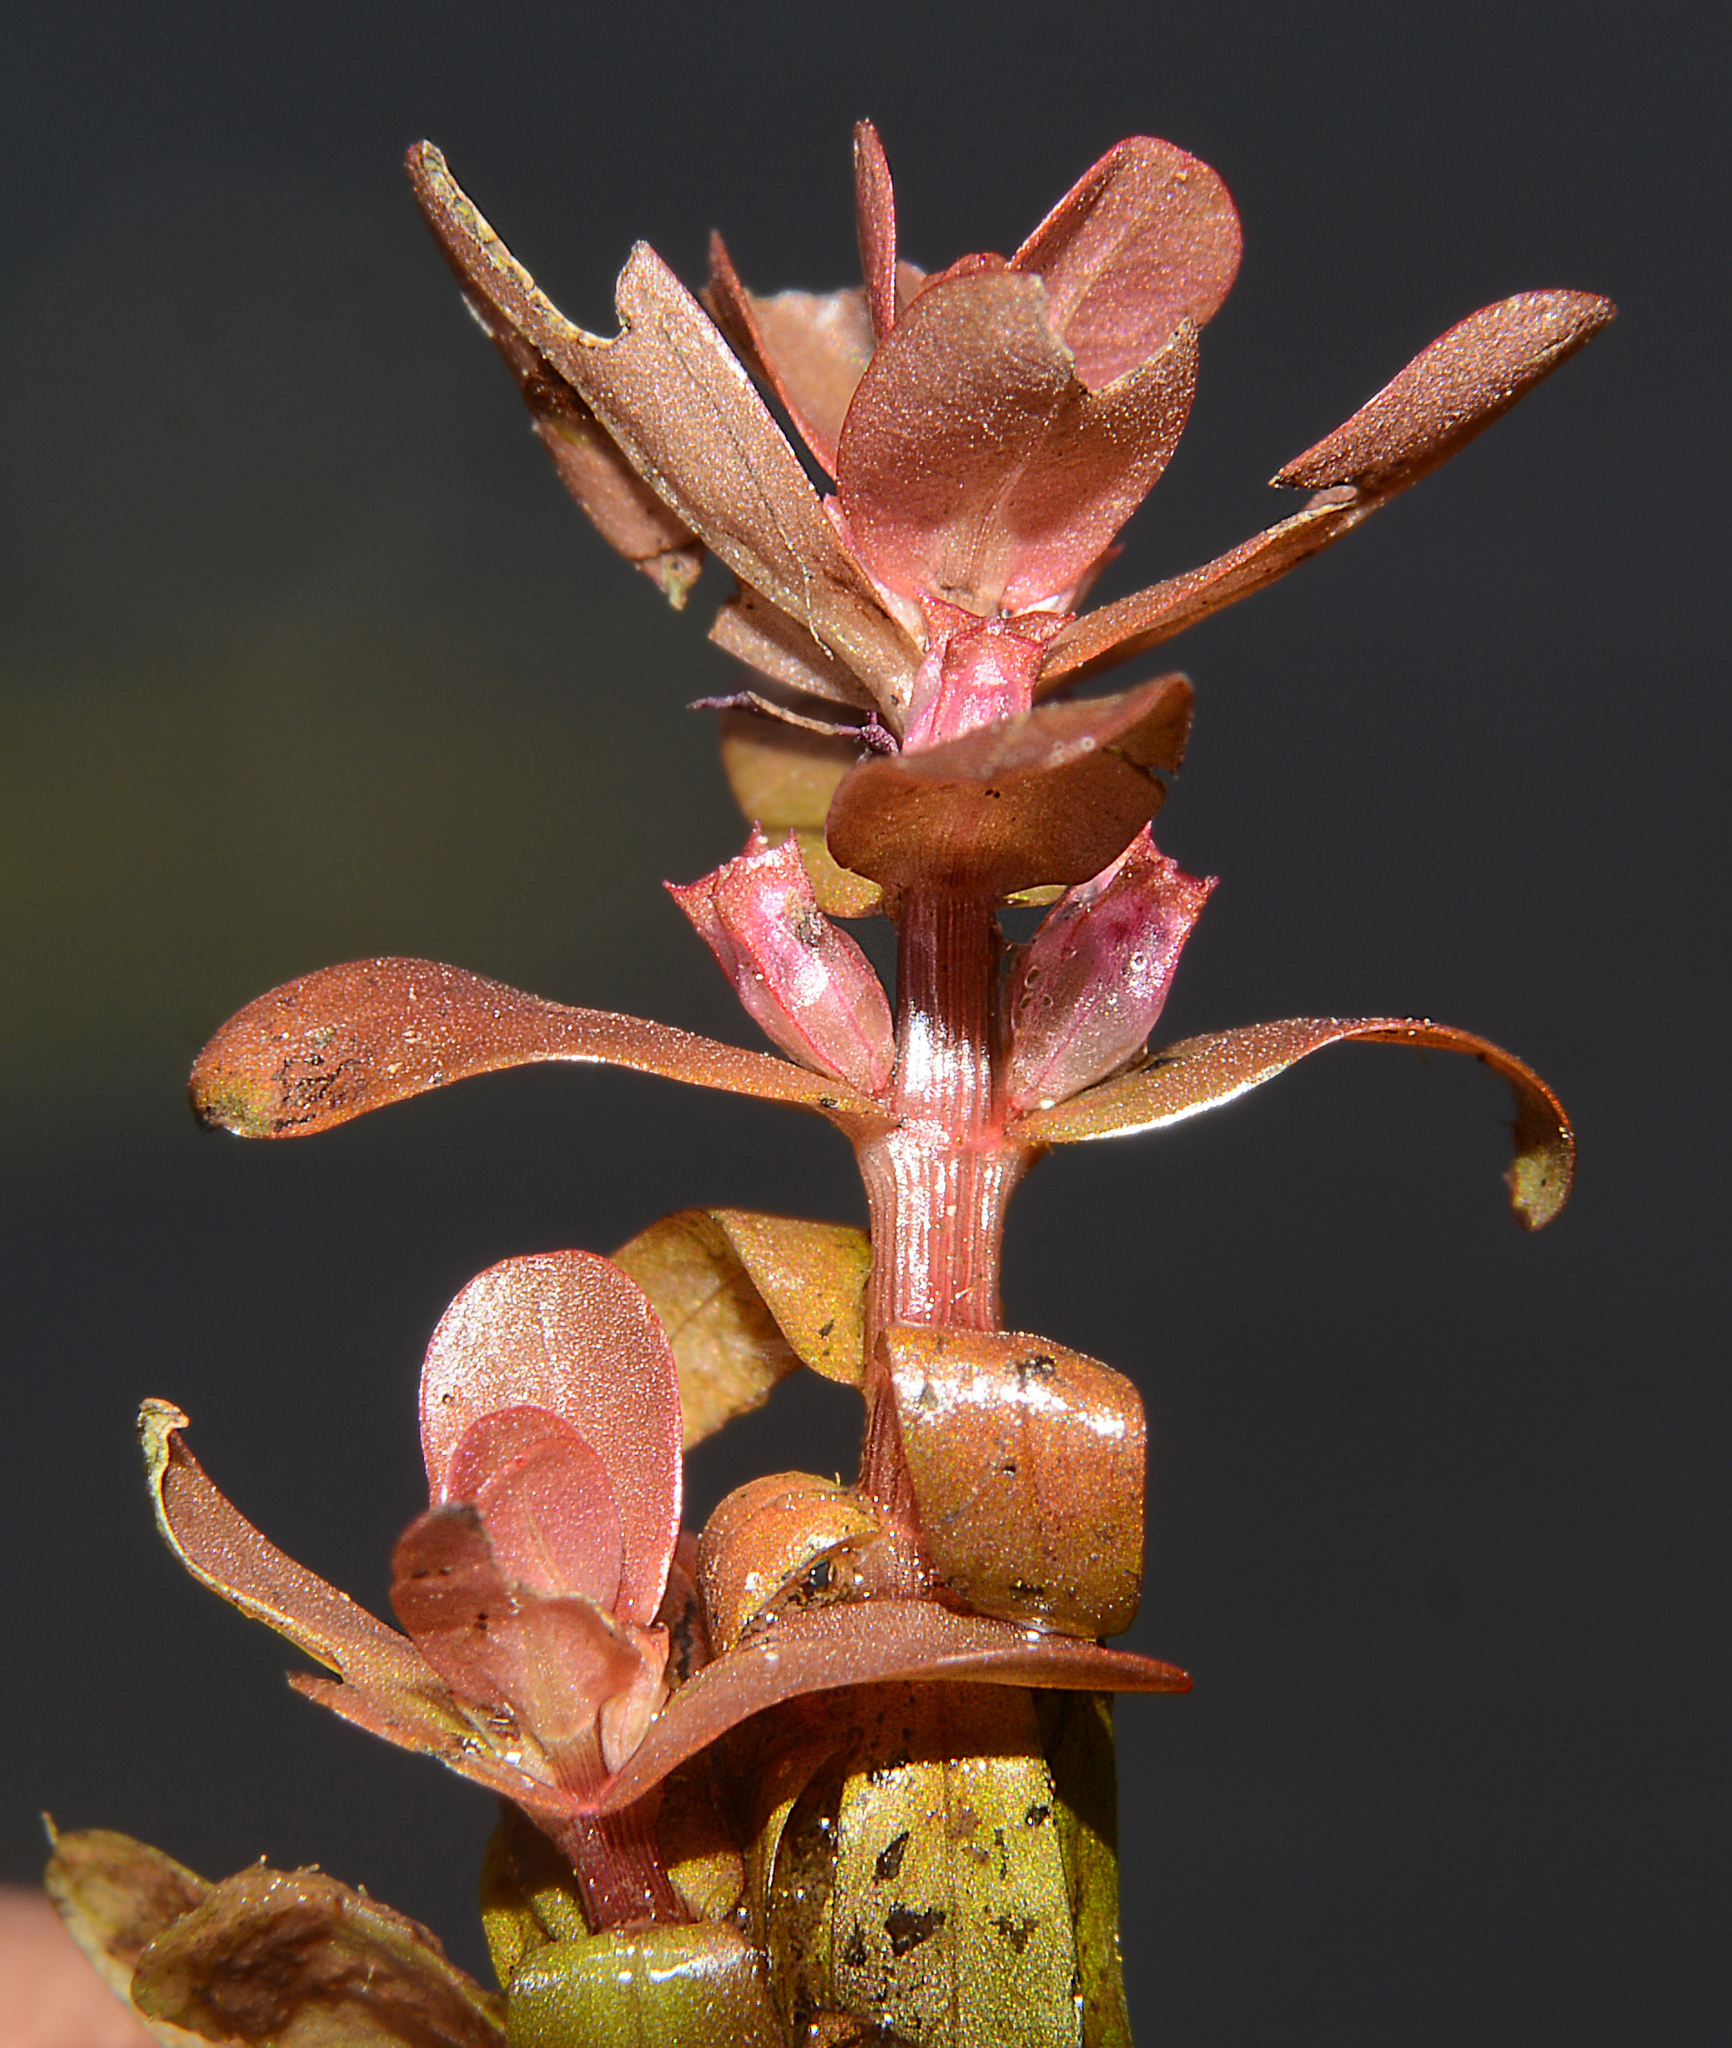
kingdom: Plantae
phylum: Tracheophyta
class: Magnoliopsida
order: Myrtales
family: Lythraceae
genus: Rotala
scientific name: Rotala sahyadrica
